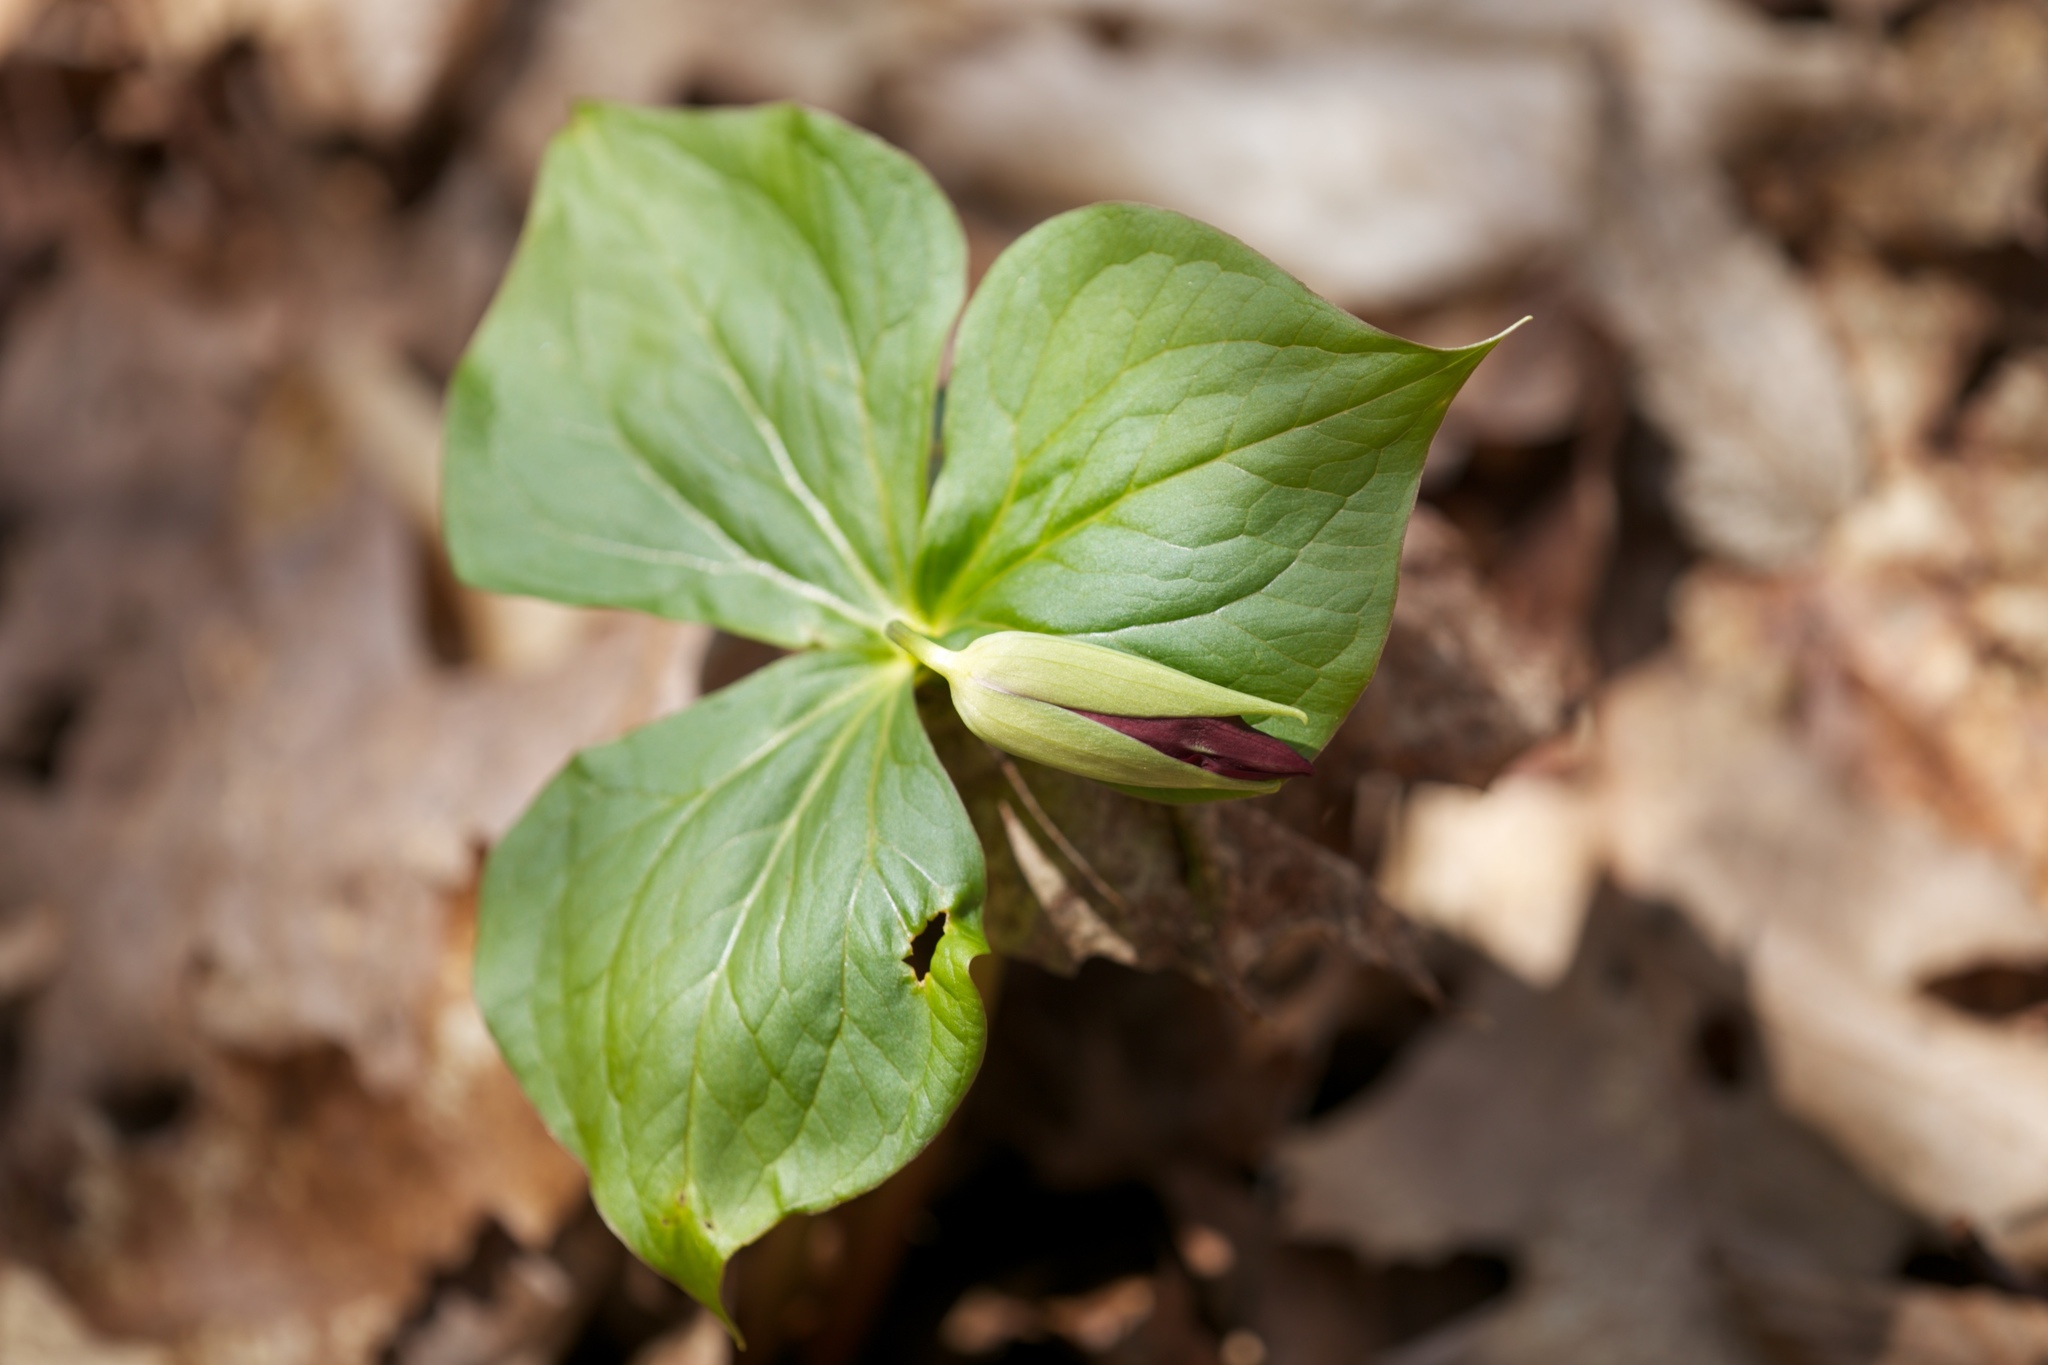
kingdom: Plantae
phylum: Tracheophyta
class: Liliopsida
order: Liliales
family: Melanthiaceae
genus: Trillium
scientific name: Trillium erectum
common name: Purple trillium
